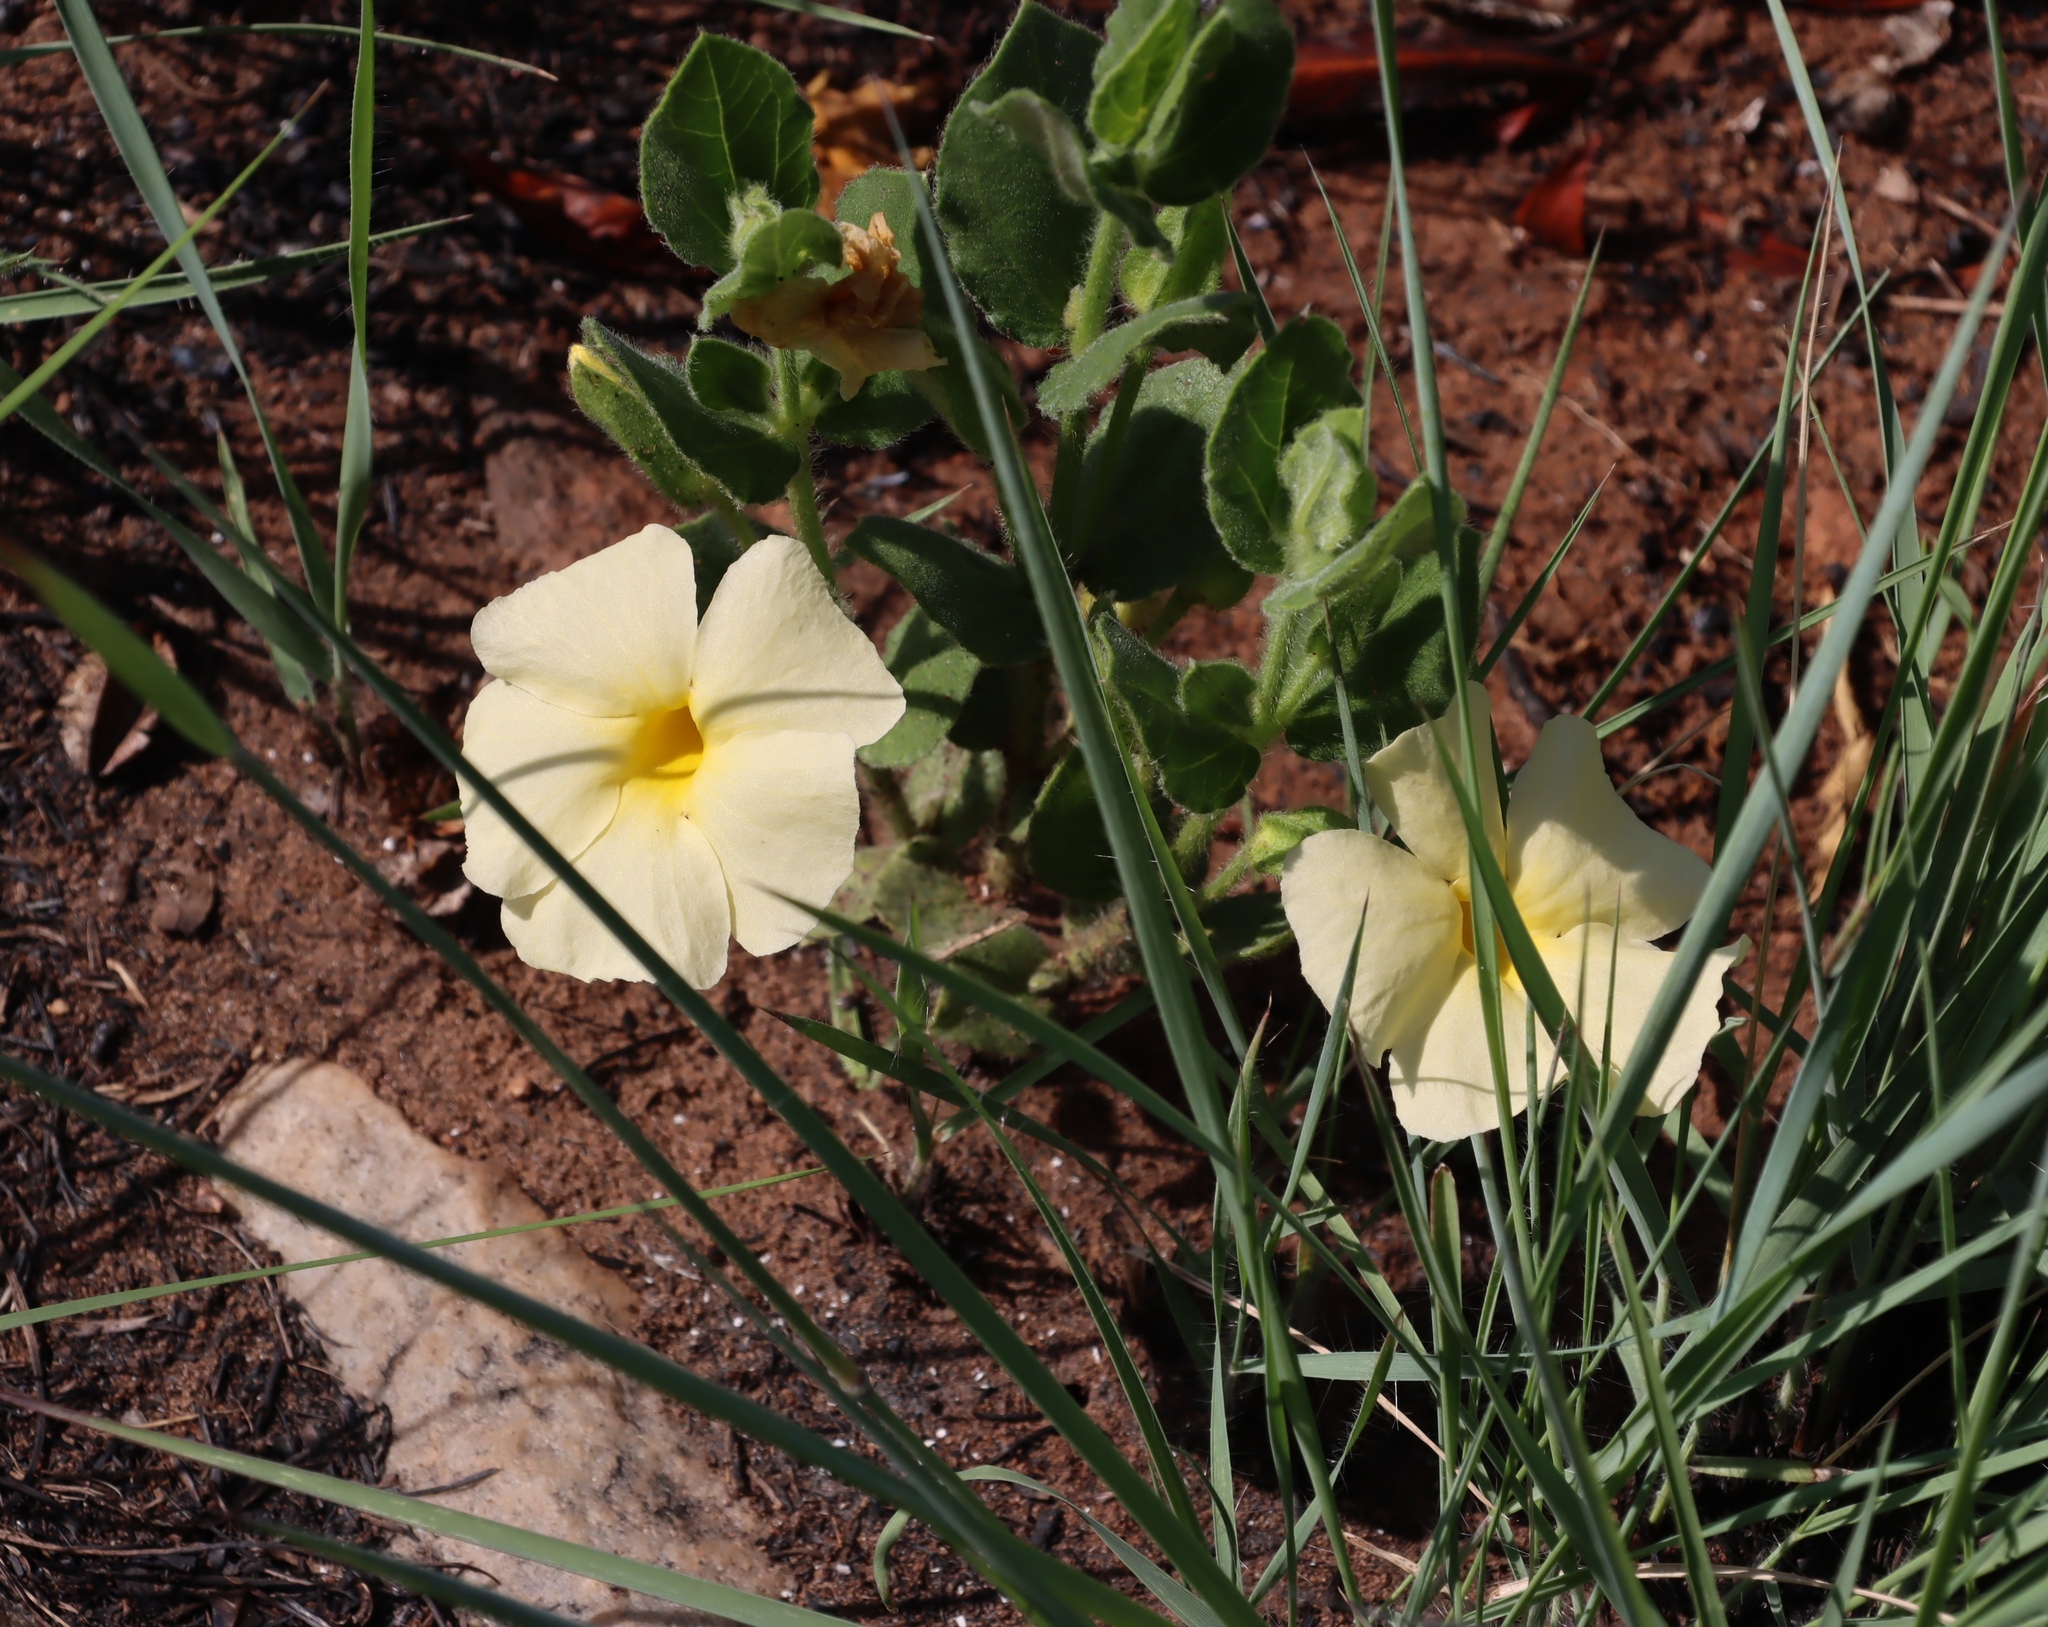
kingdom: Plantae
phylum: Tracheophyta
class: Magnoliopsida
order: Lamiales
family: Acanthaceae
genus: Thunbergia
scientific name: Thunbergia atriplicifolia
